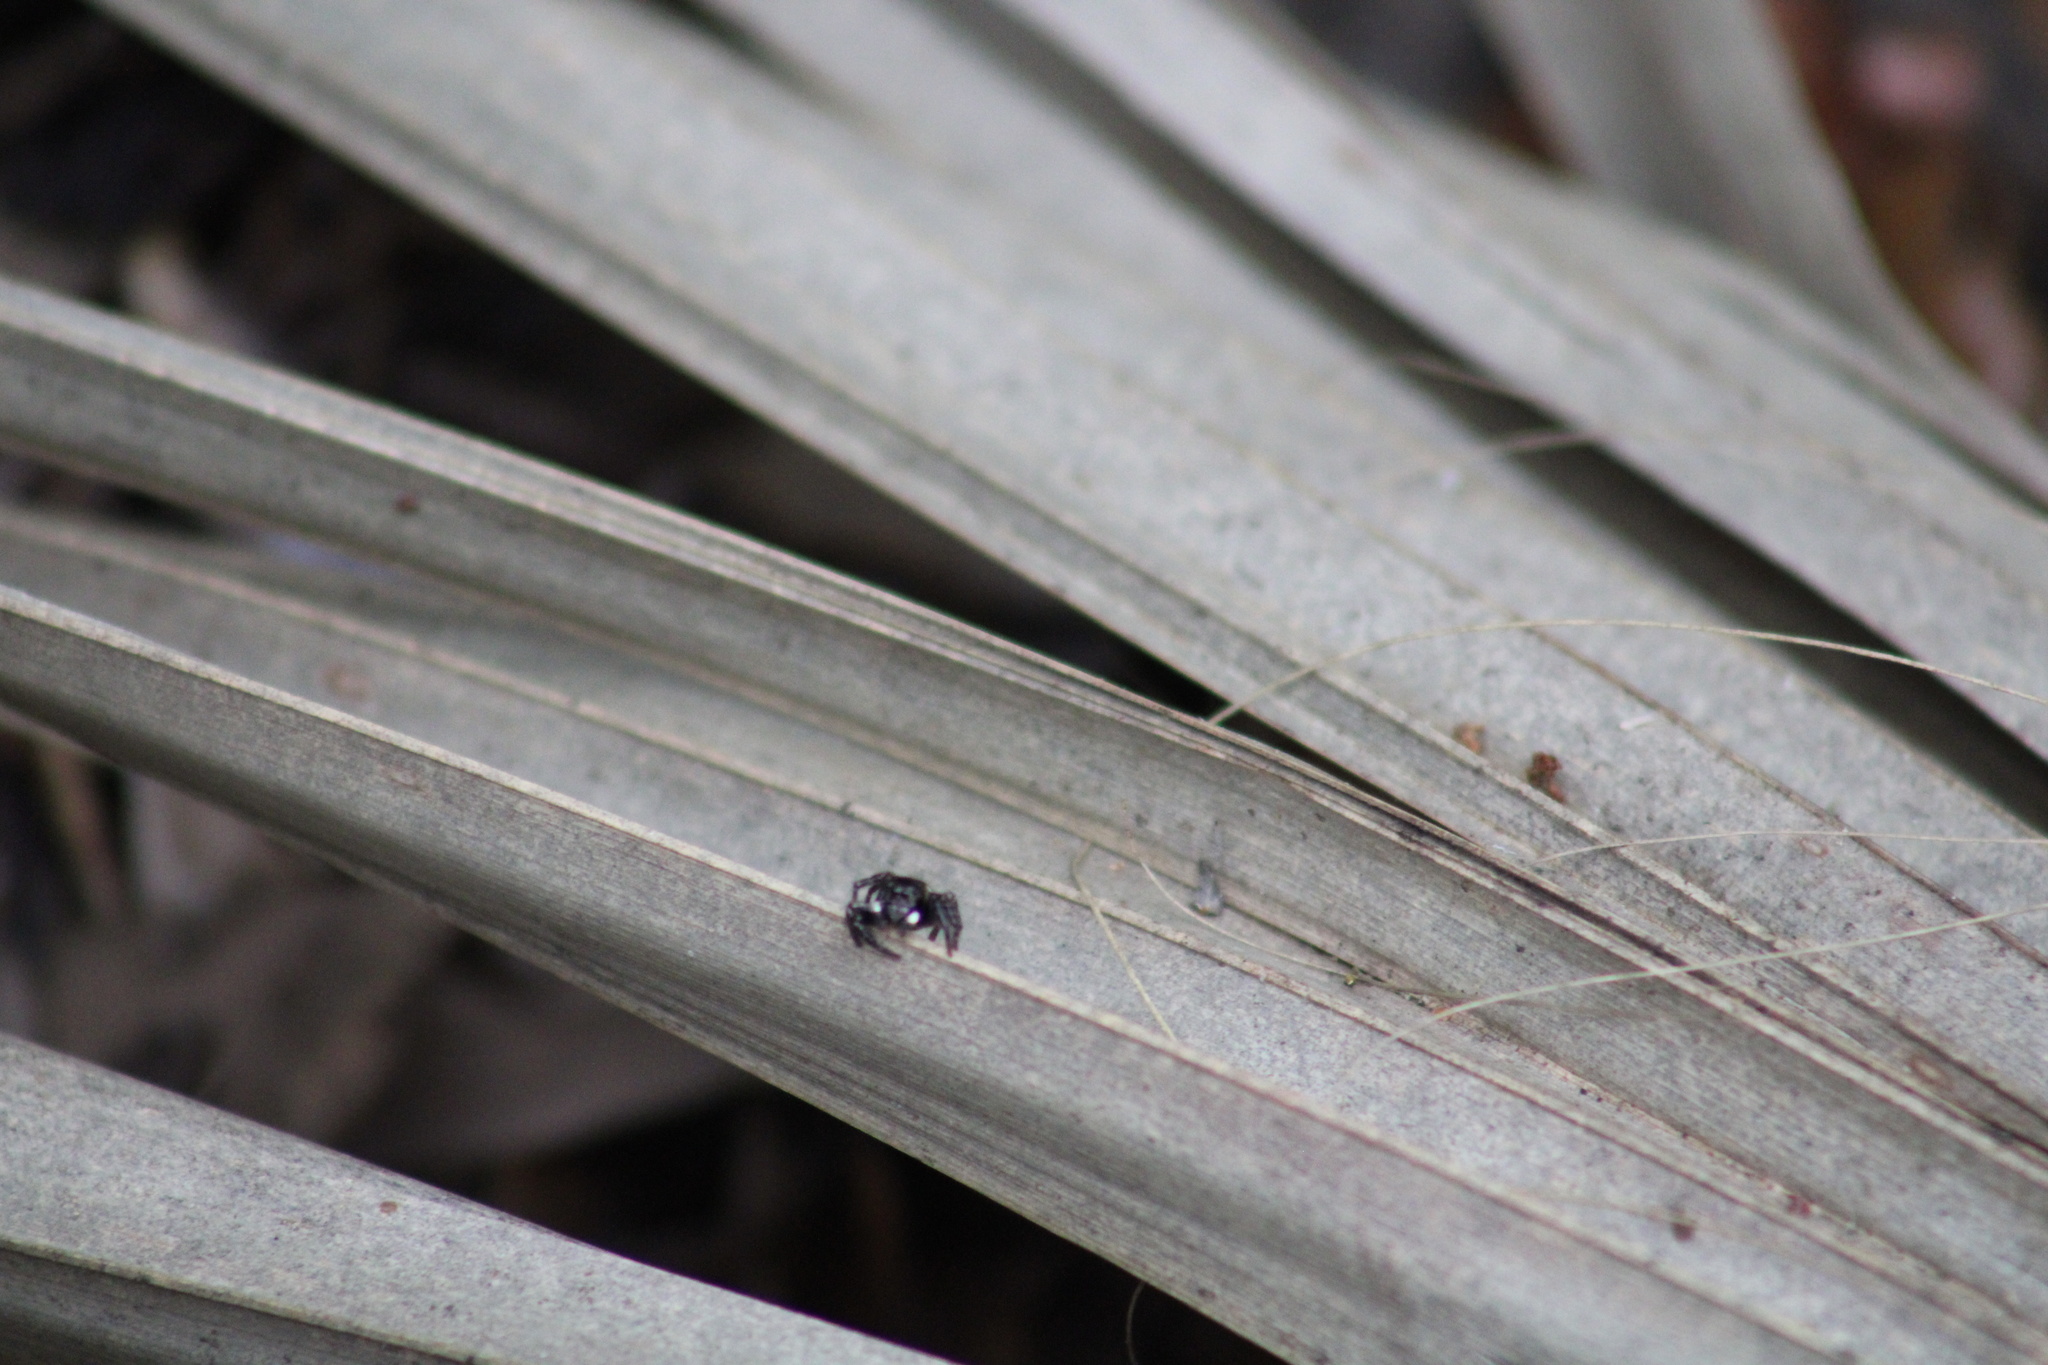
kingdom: Animalia
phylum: Arthropoda
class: Arachnida
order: Araneae
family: Salticidae
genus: Anasaitis
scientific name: Anasaitis canosa
